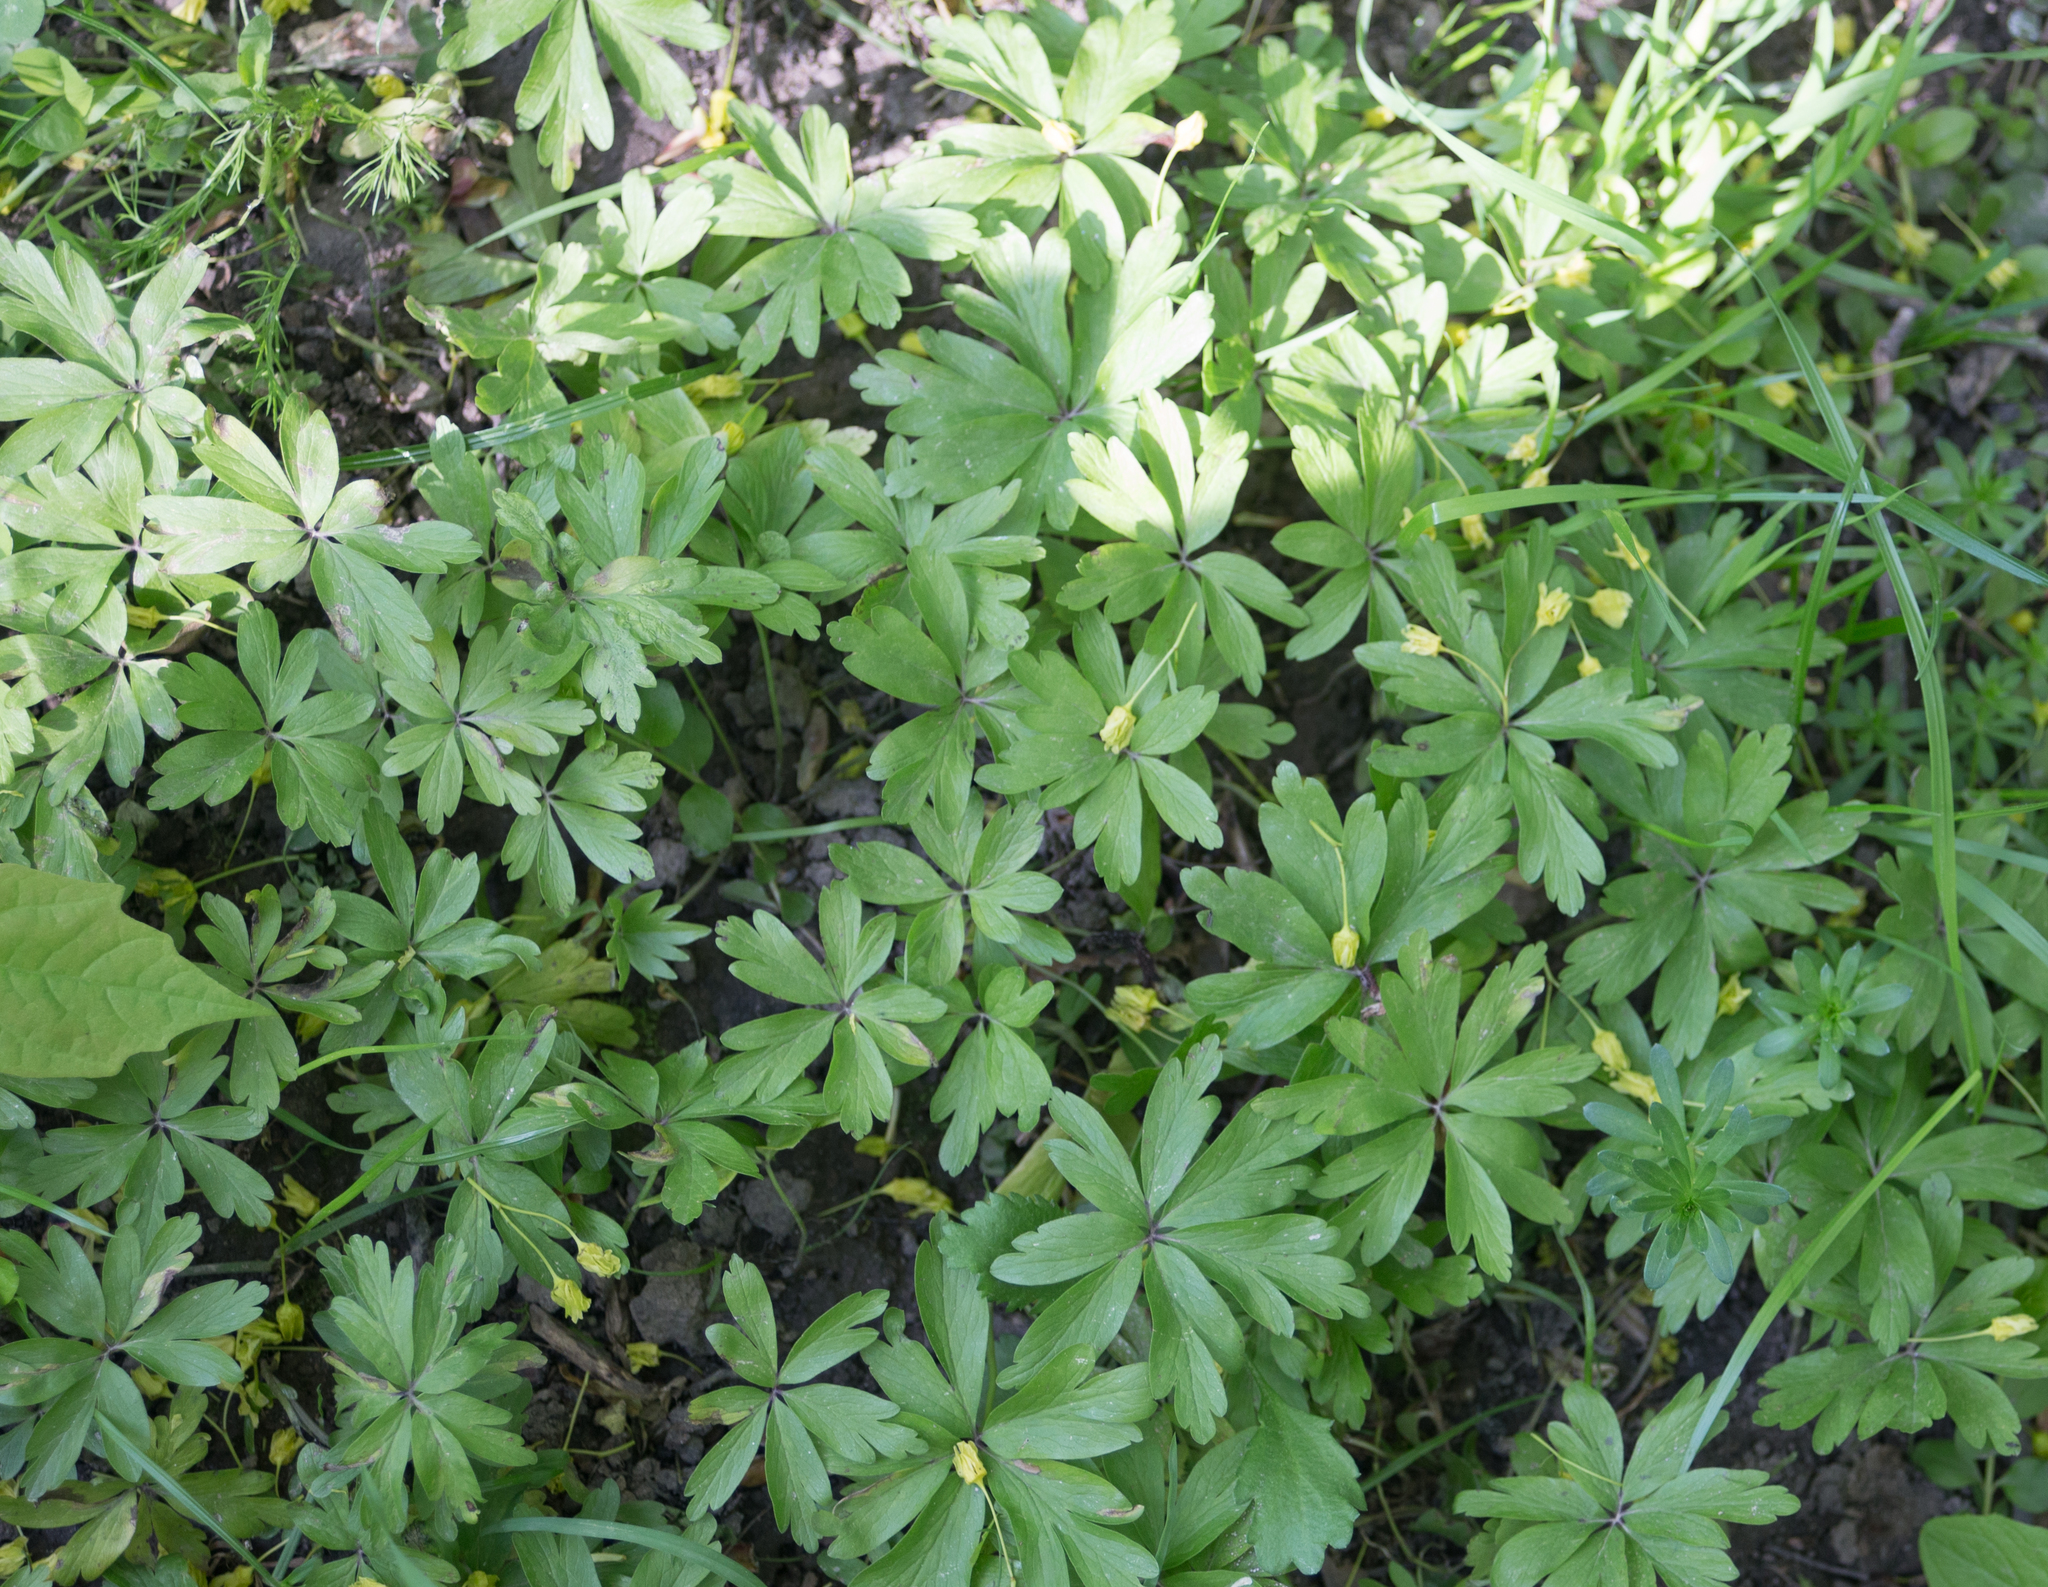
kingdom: Plantae
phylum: Tracheophyta
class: Magnoliopsida
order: Ranunculales
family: Ranunculaceae
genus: Anemone
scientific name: Anemone ranunculoides
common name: Yellow anemone
